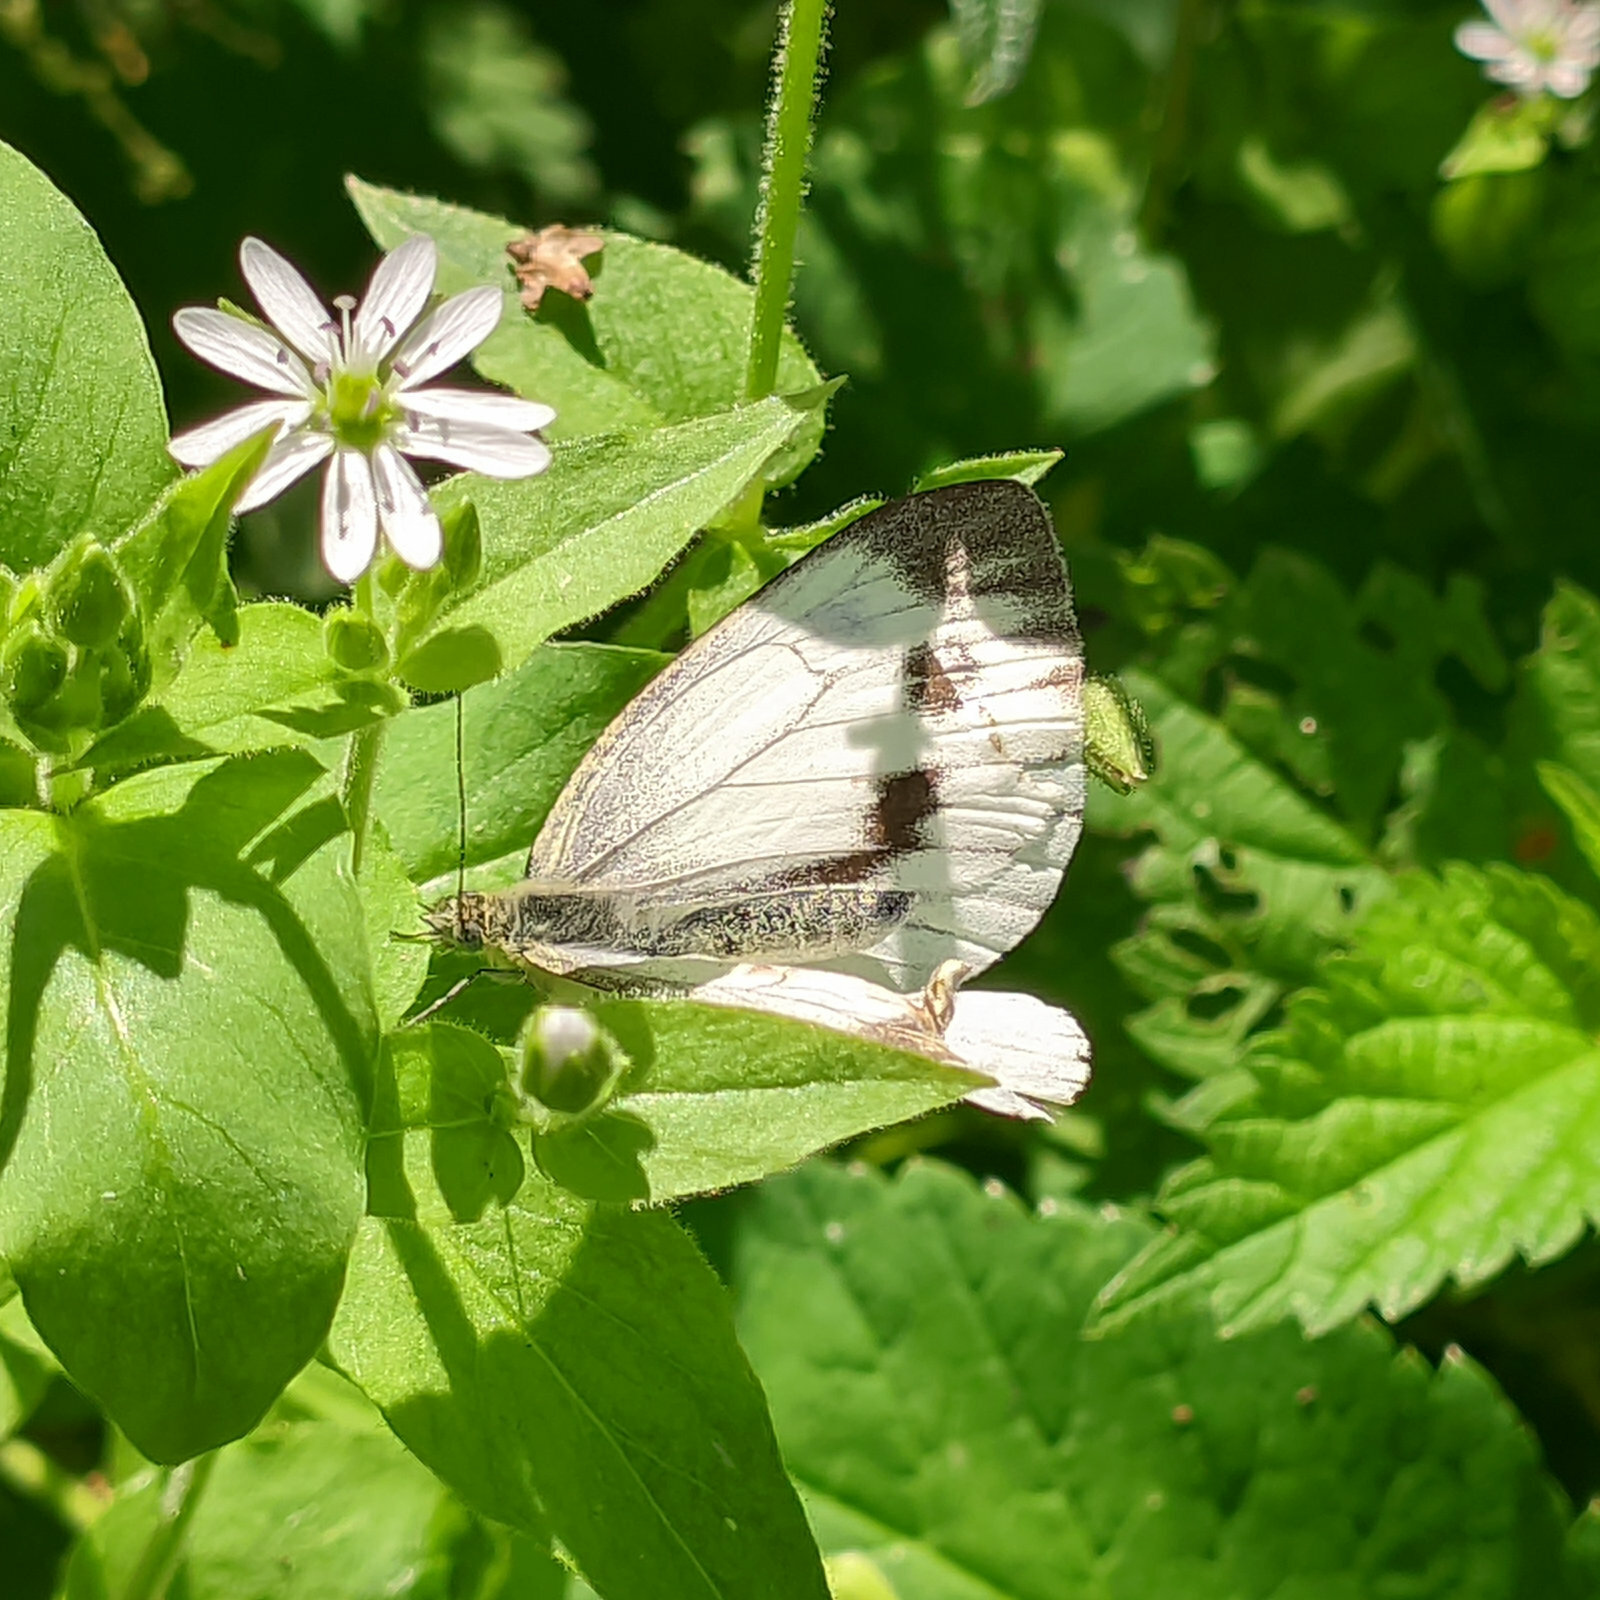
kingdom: Animalia
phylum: Arthropoda
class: Insecta
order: Lepidoptera
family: Pieridae
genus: Pieris
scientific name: Pieris napi
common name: Green-veined white
